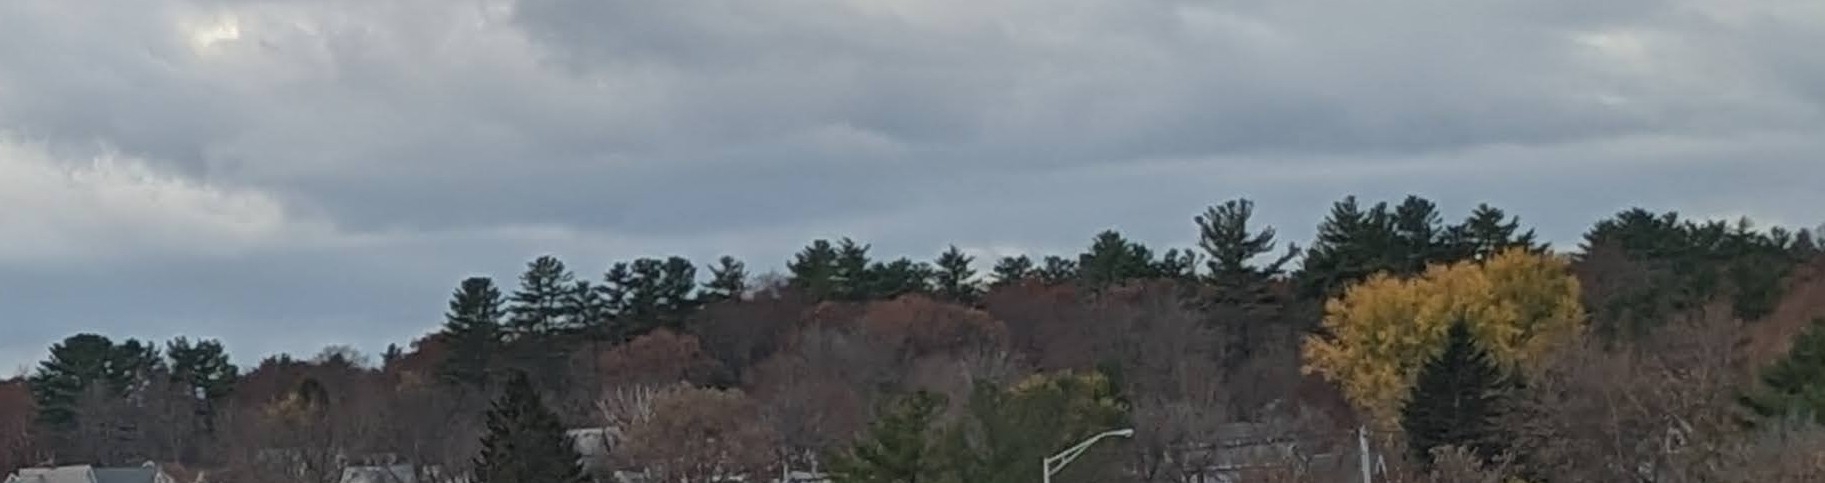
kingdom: Plantae
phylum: Tracheophyta
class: Pinopsida
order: Pinales
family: Pinaceae
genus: Pinus
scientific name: Pinus strobus
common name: Weymouth pine
